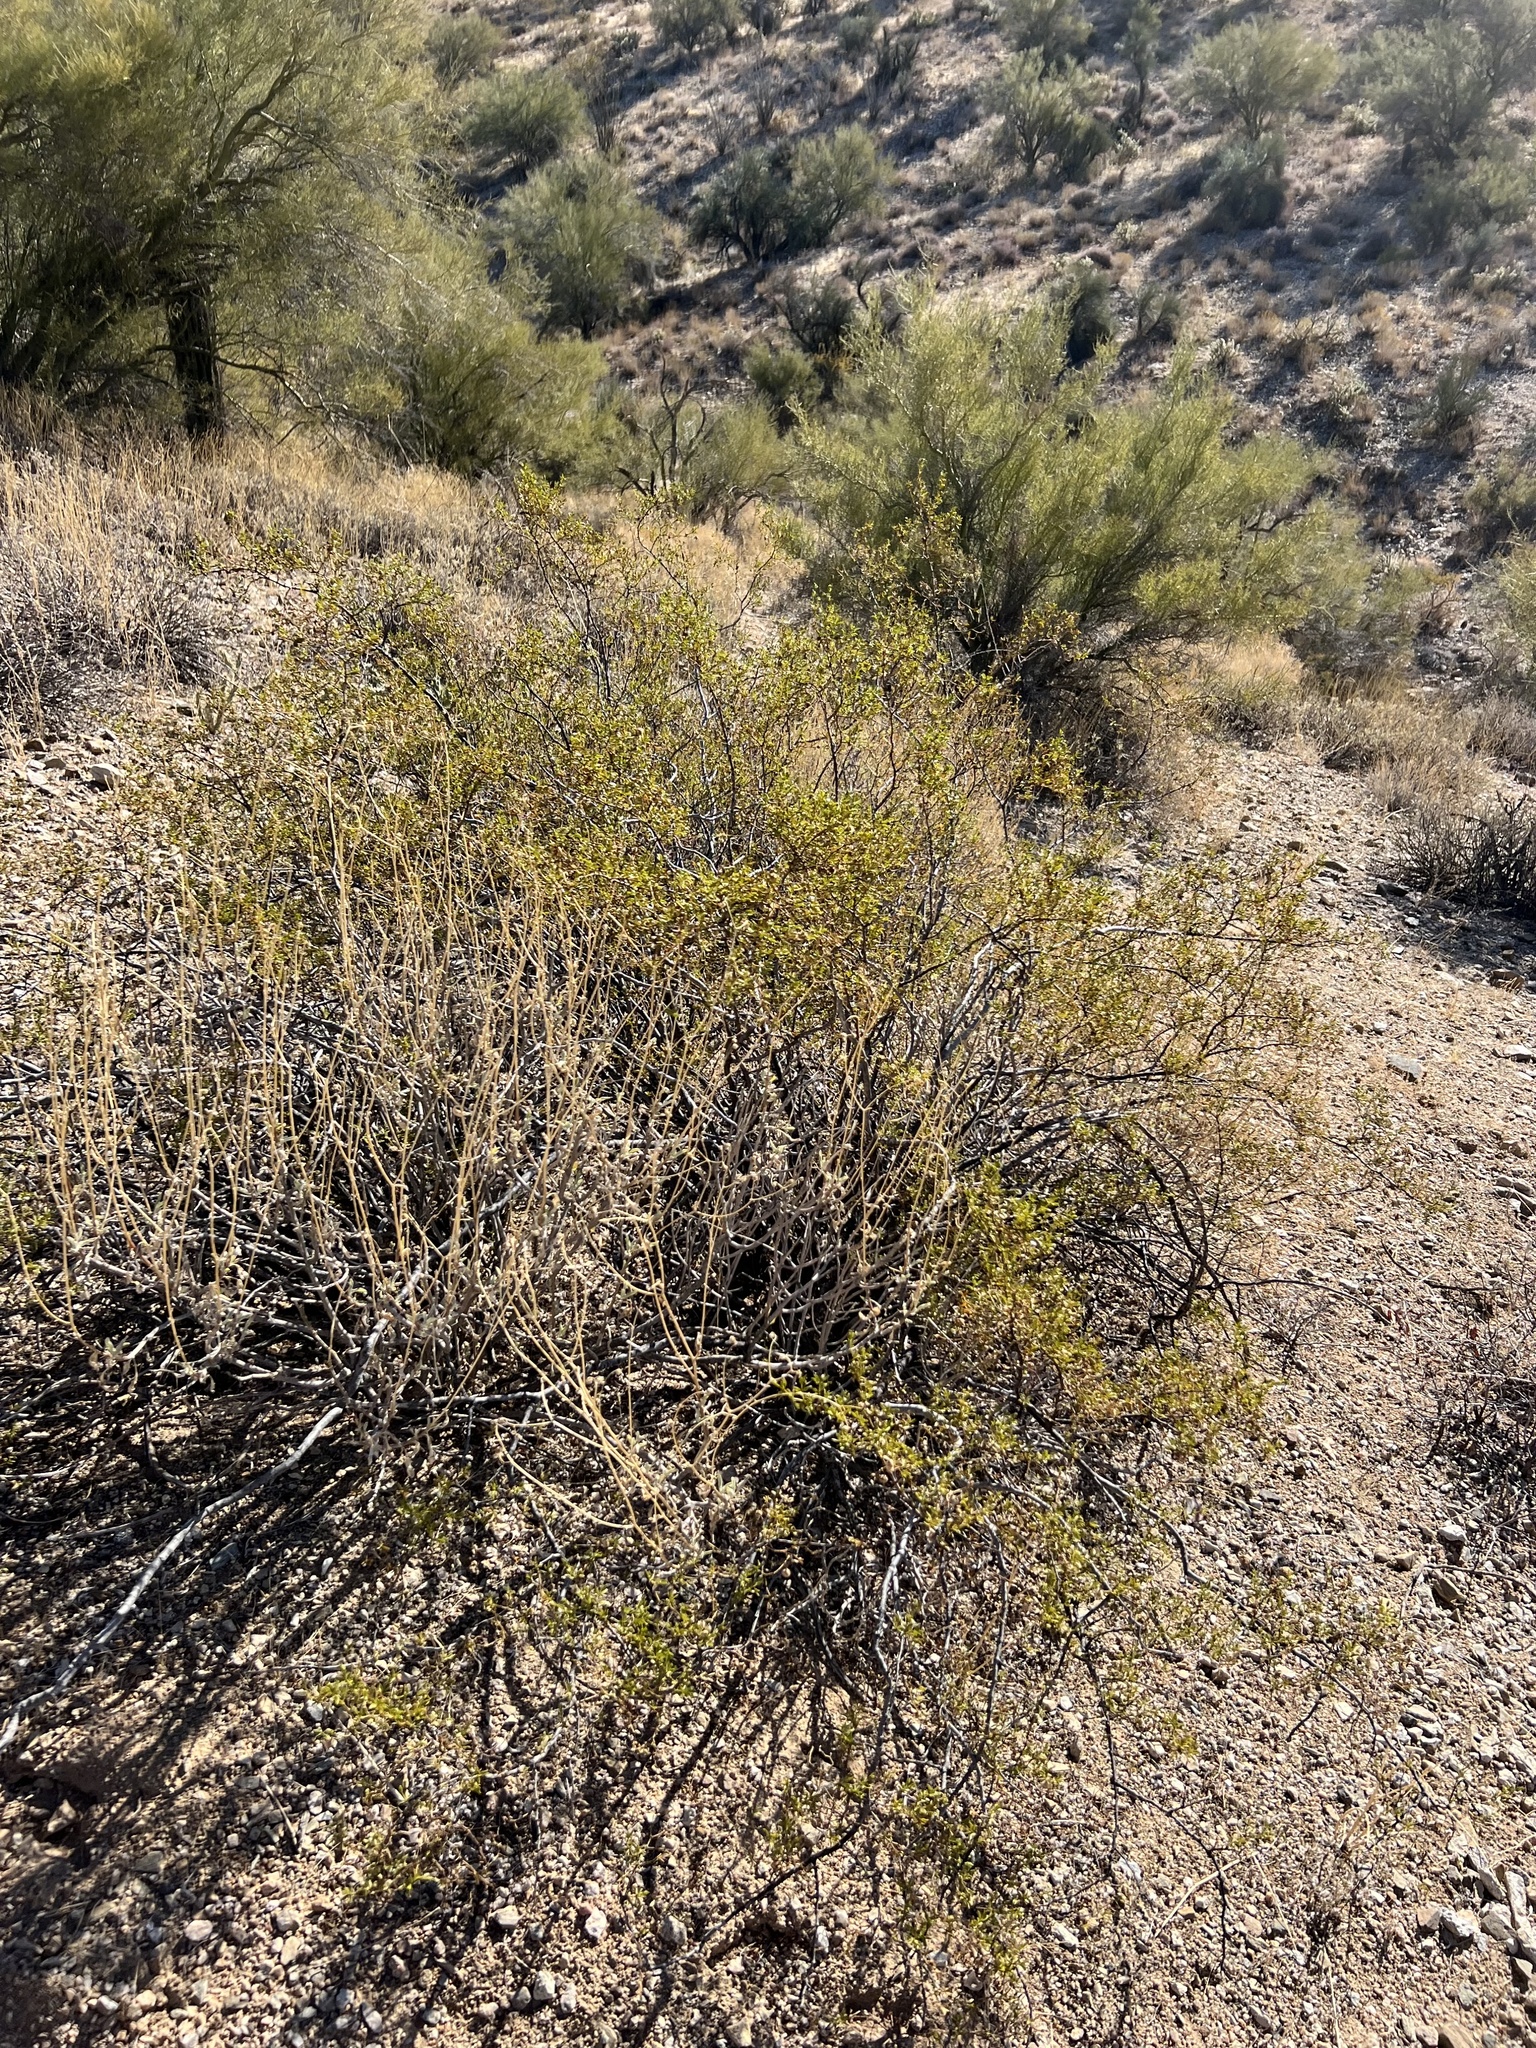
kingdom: Plantae
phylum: Tracheophyta
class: Magnoliopsida
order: Zygophyllales
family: Zygophyllaceae
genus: Larrea
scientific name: Larrea tridentata
